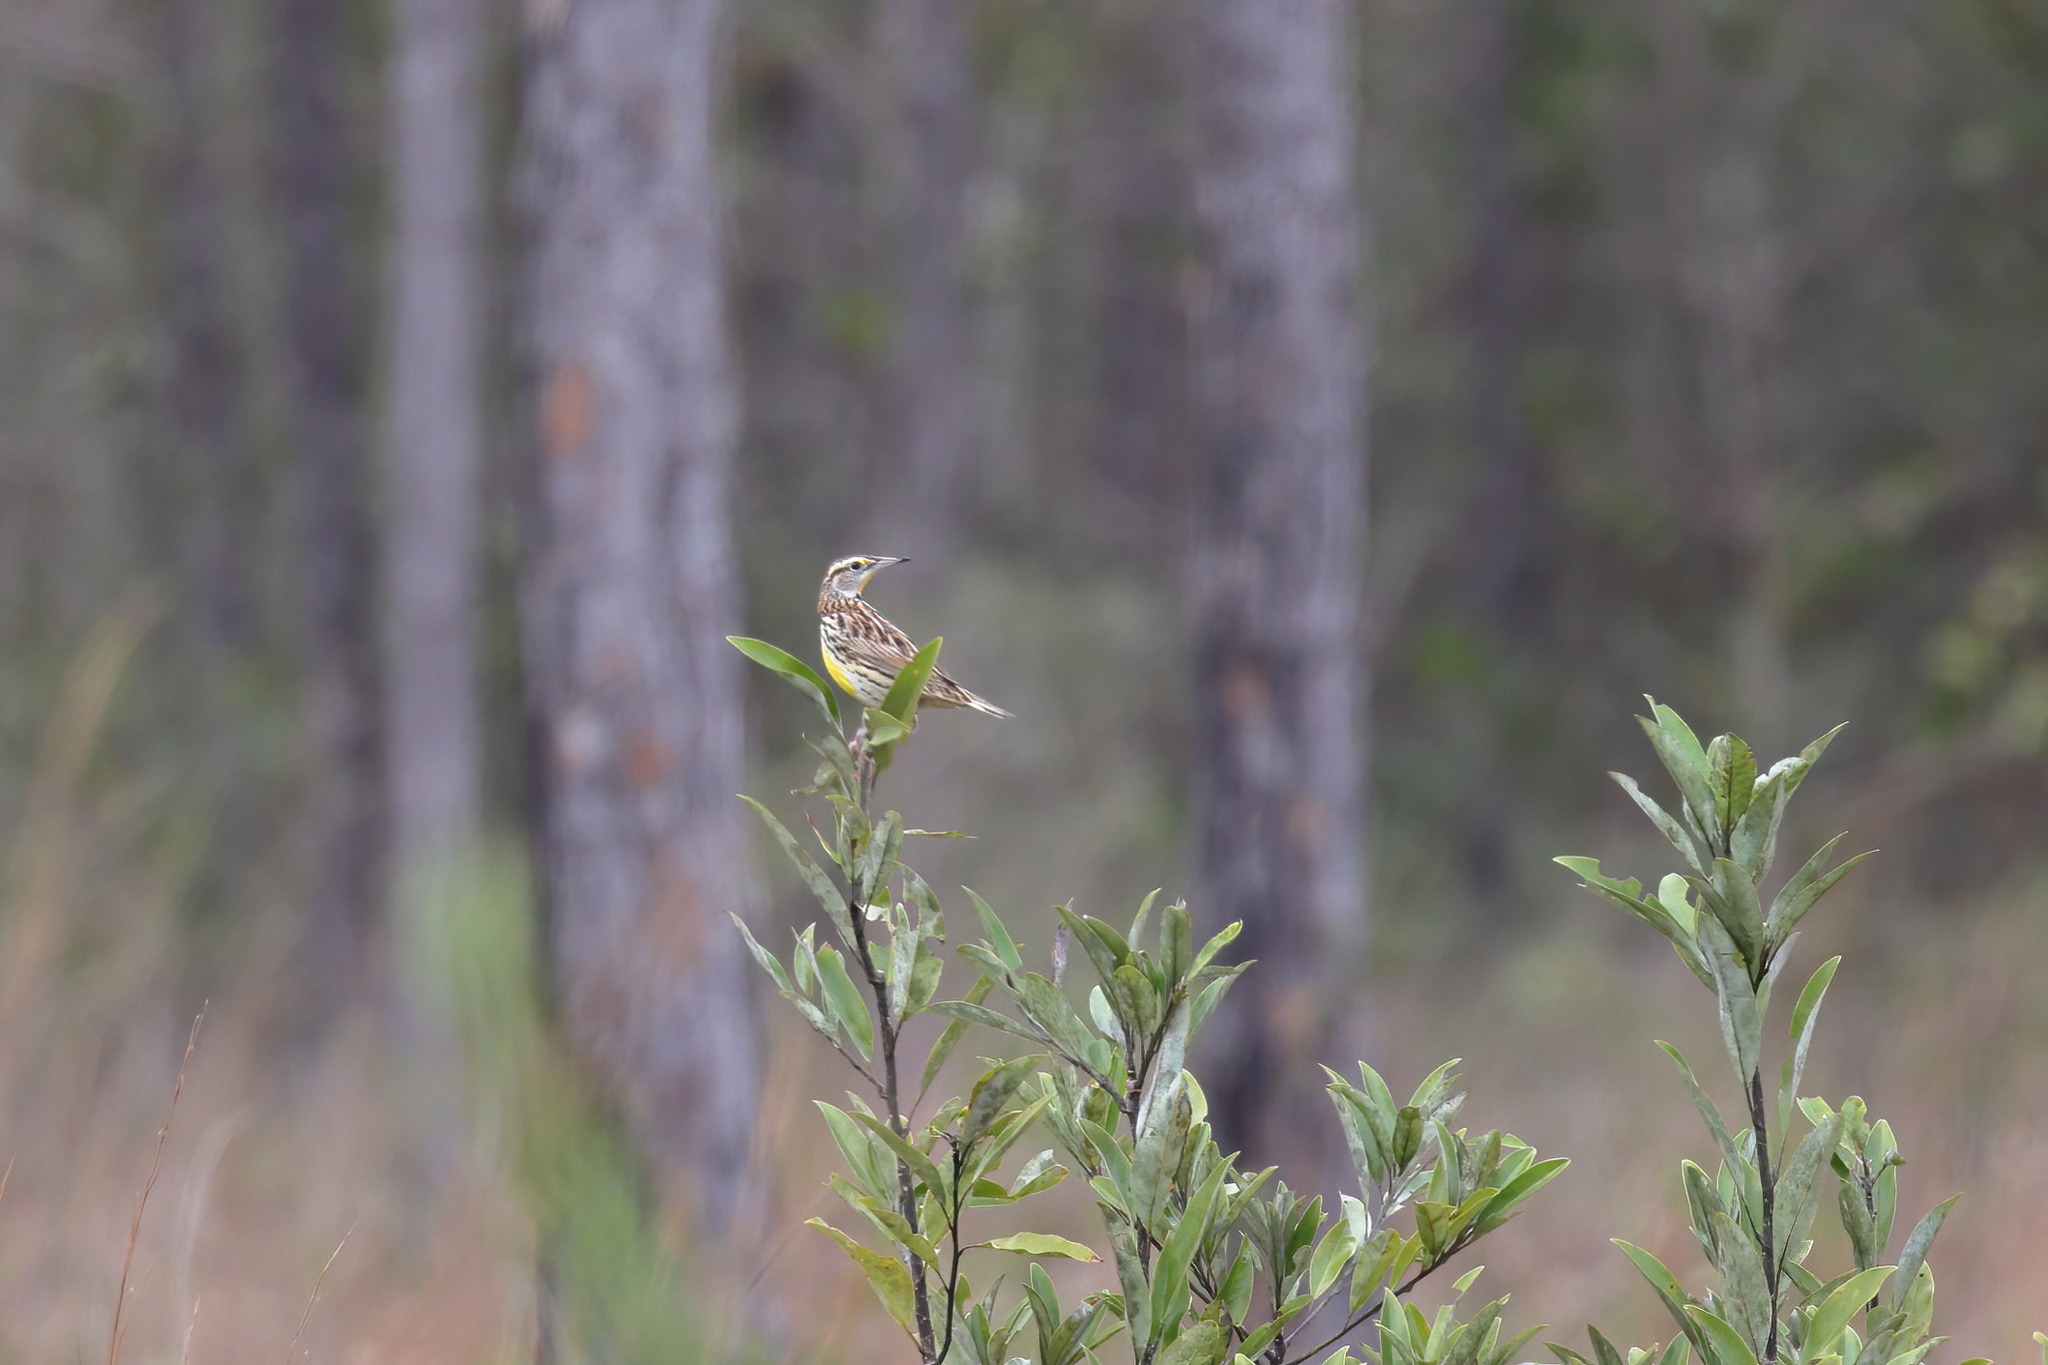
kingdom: Animalia
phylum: Chordata
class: Aves
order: Passeriformes
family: Icteridae
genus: Sturnella
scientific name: Sturnella magna
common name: Eastern meadowlark
